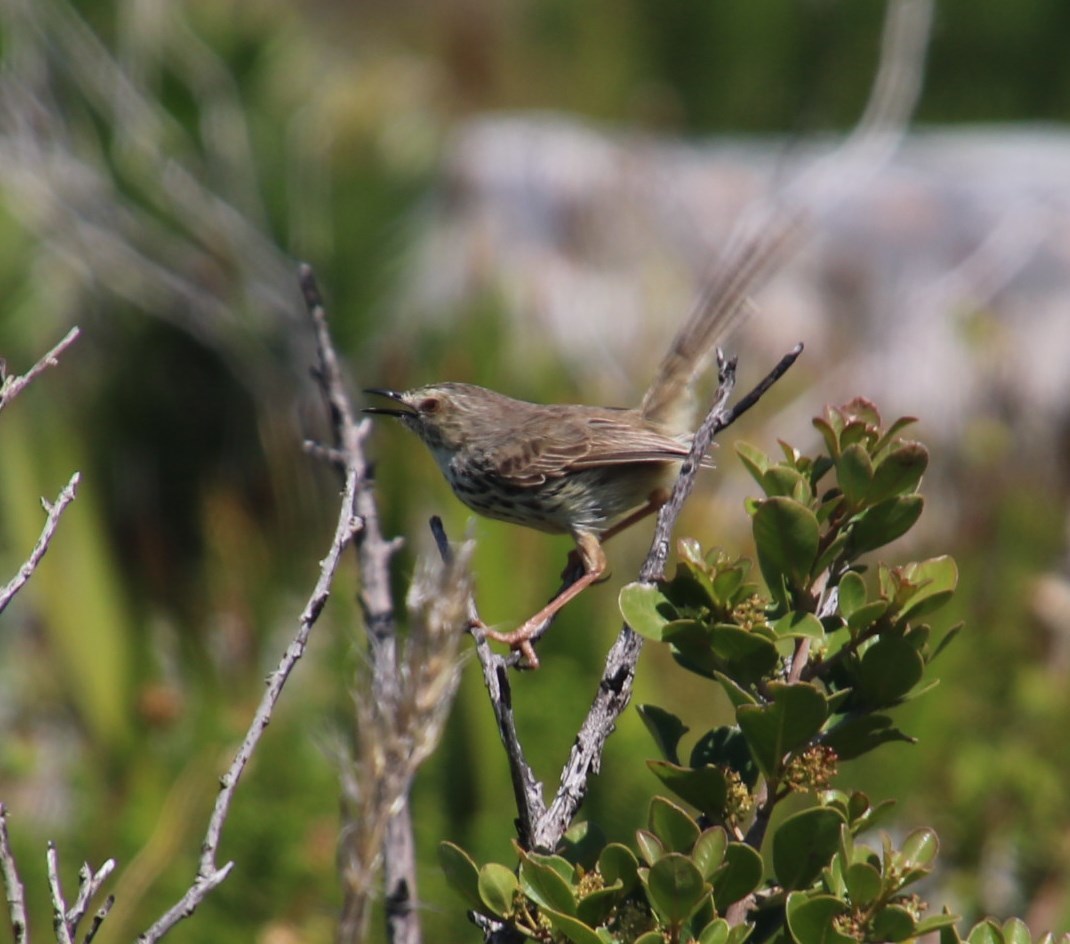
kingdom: Animalia
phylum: Chordata
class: Aves
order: Passeriformes
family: Cisticolidae
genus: Prinia
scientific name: Prinia maculosa
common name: Karoo prinia
